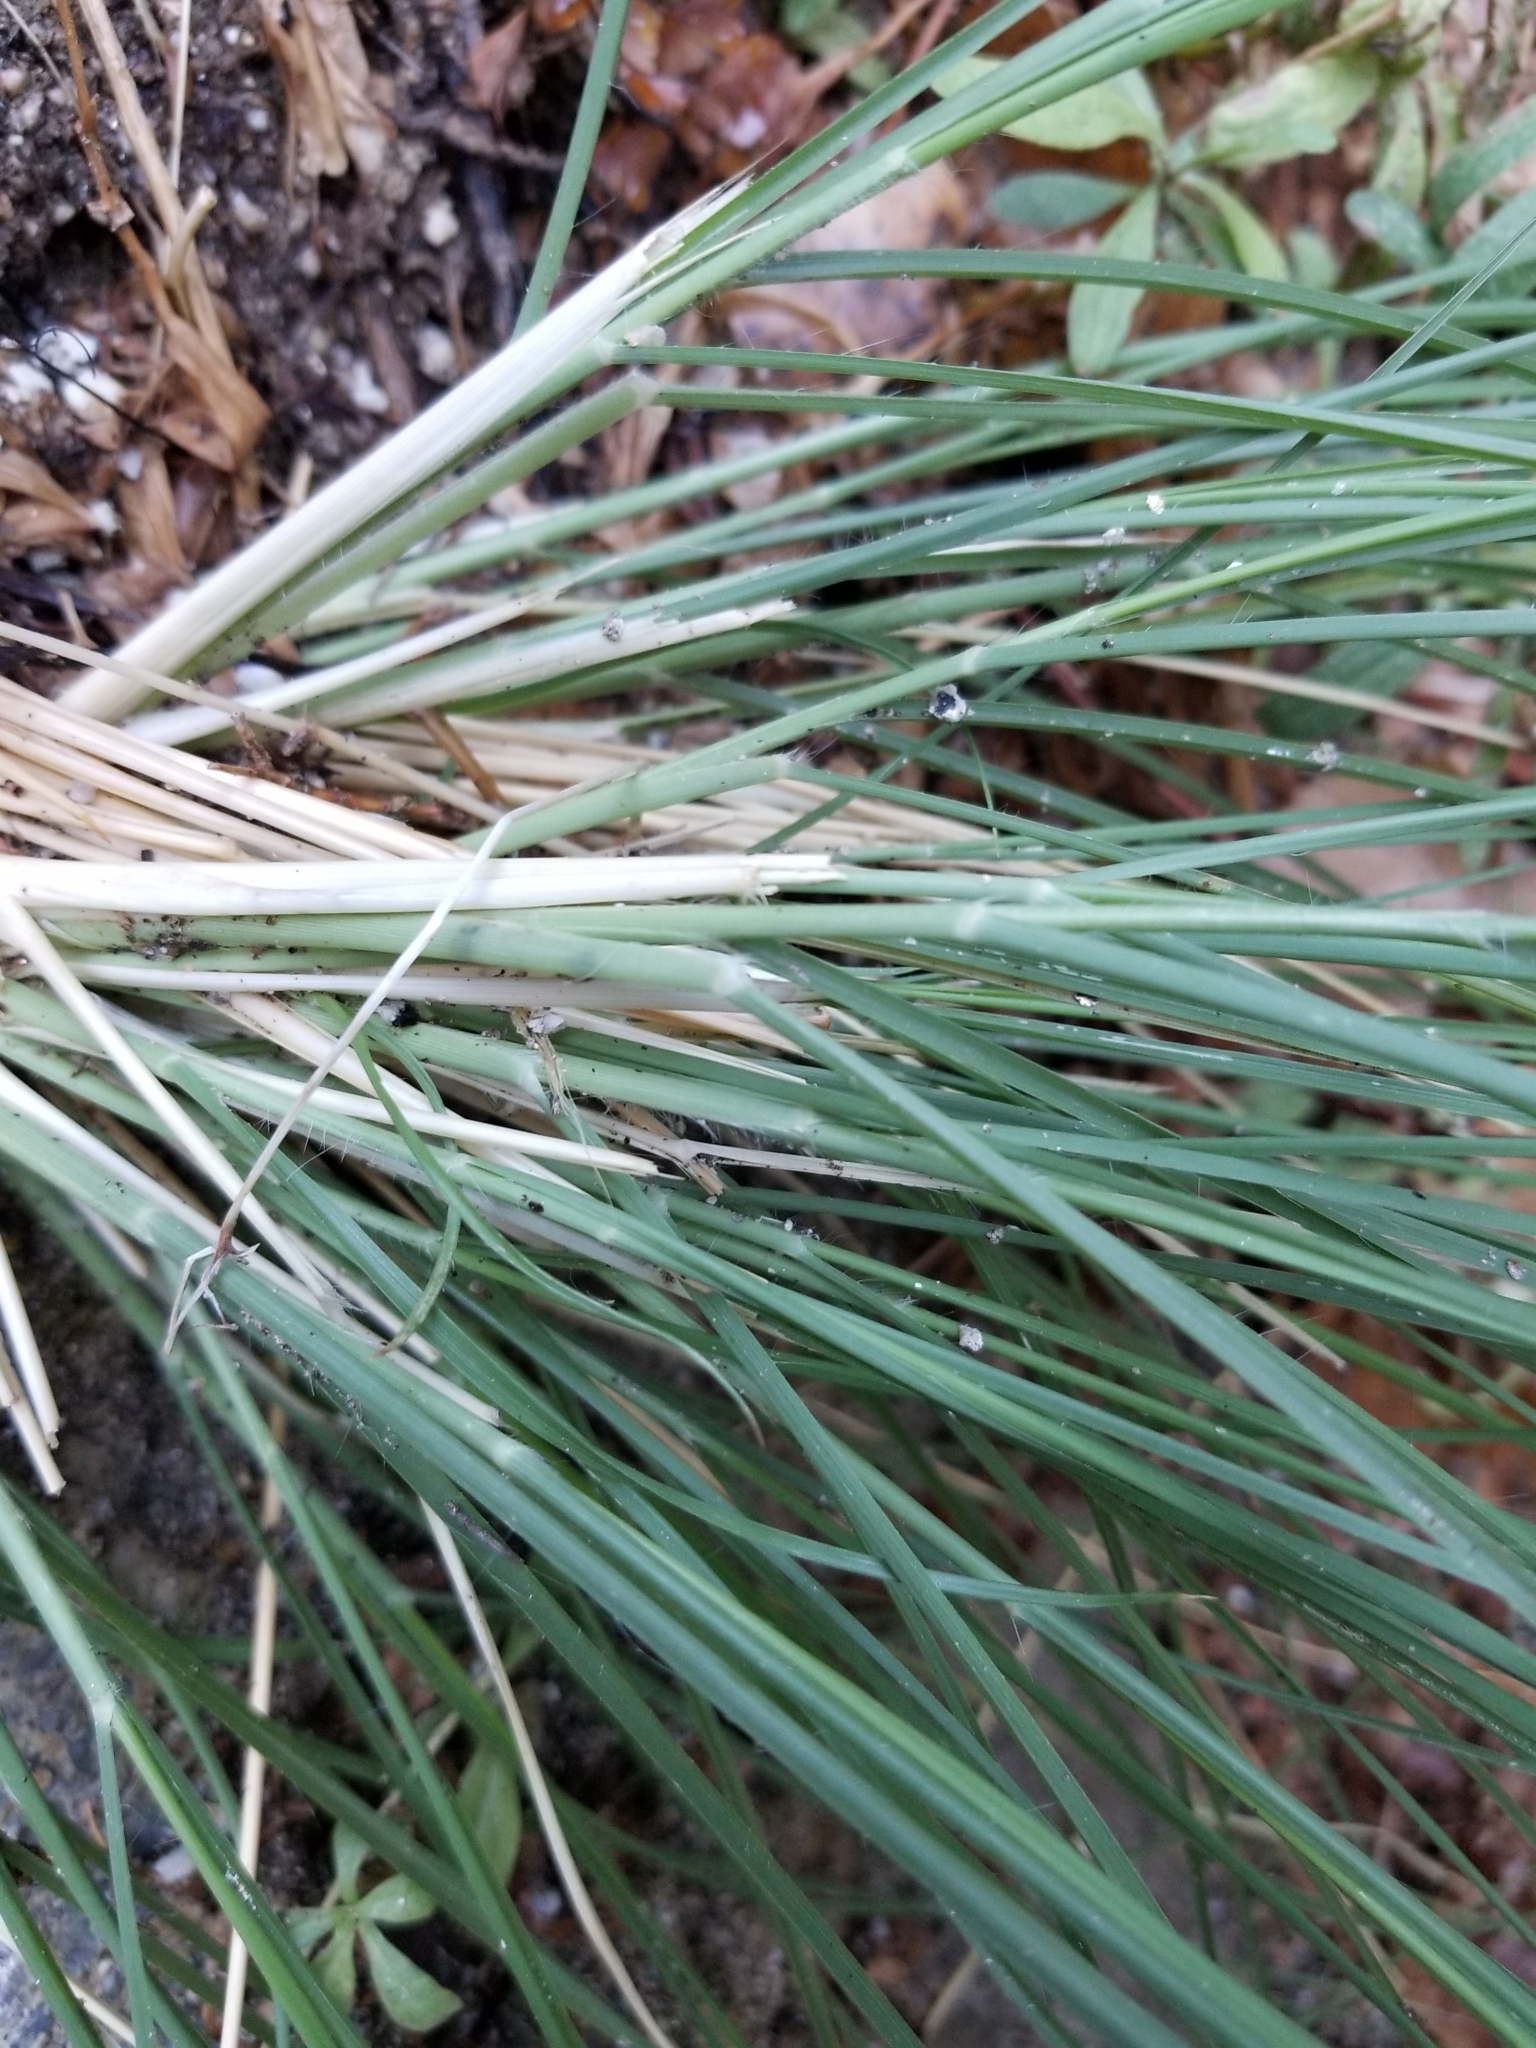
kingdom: Plantae
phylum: Tracheophyta
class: Liliopsida
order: Poales
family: Poaceae
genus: Muhlenbergia
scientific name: Muhlenbergia rigens
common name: Deer grass
